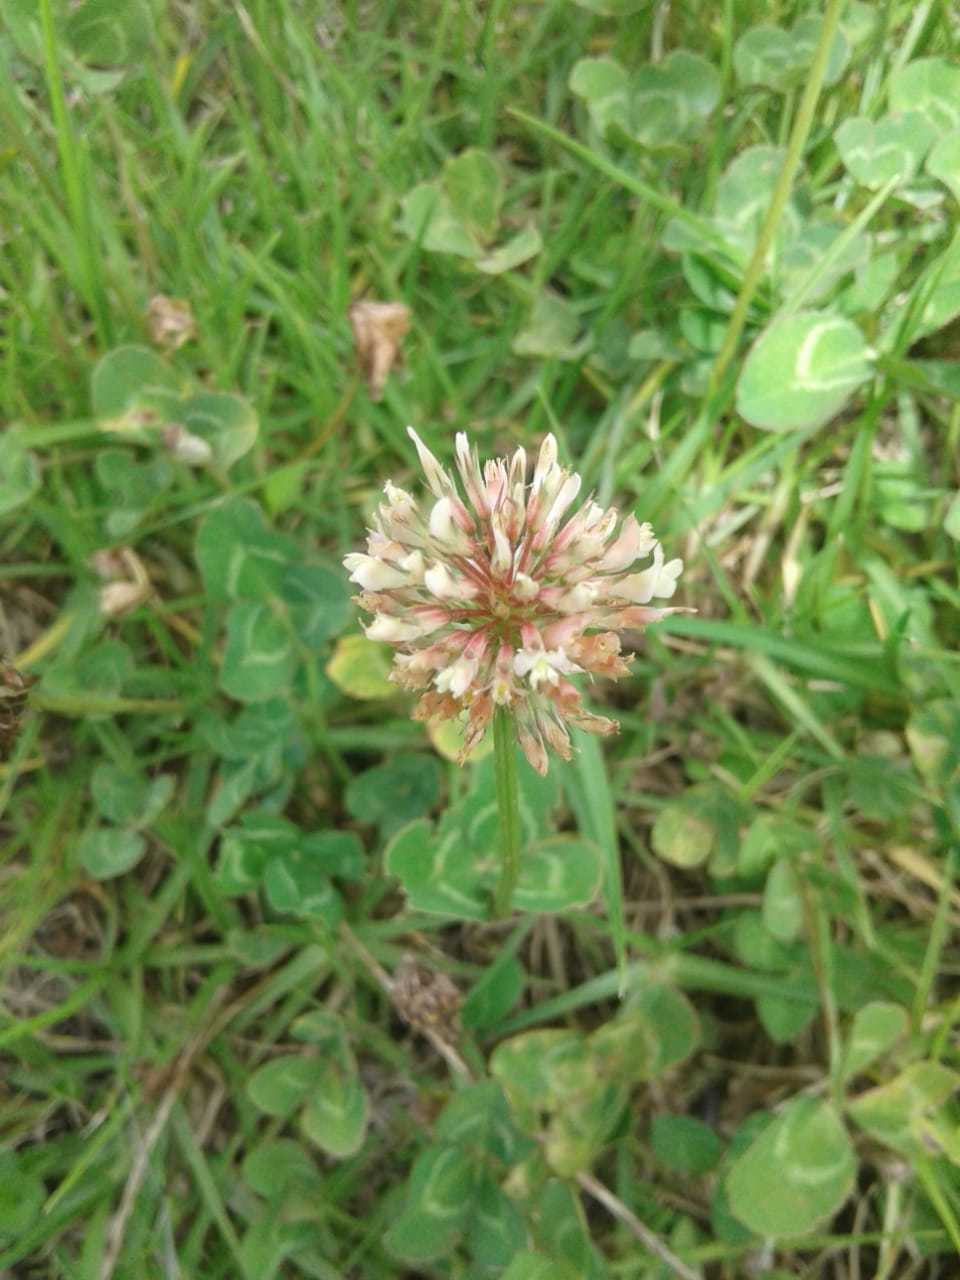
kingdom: Plantae
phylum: Tracheophyta
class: Magnoliopsida
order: Fabales
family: Fabaceae
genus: Trifolium
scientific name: Trifolium repens
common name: White clover
